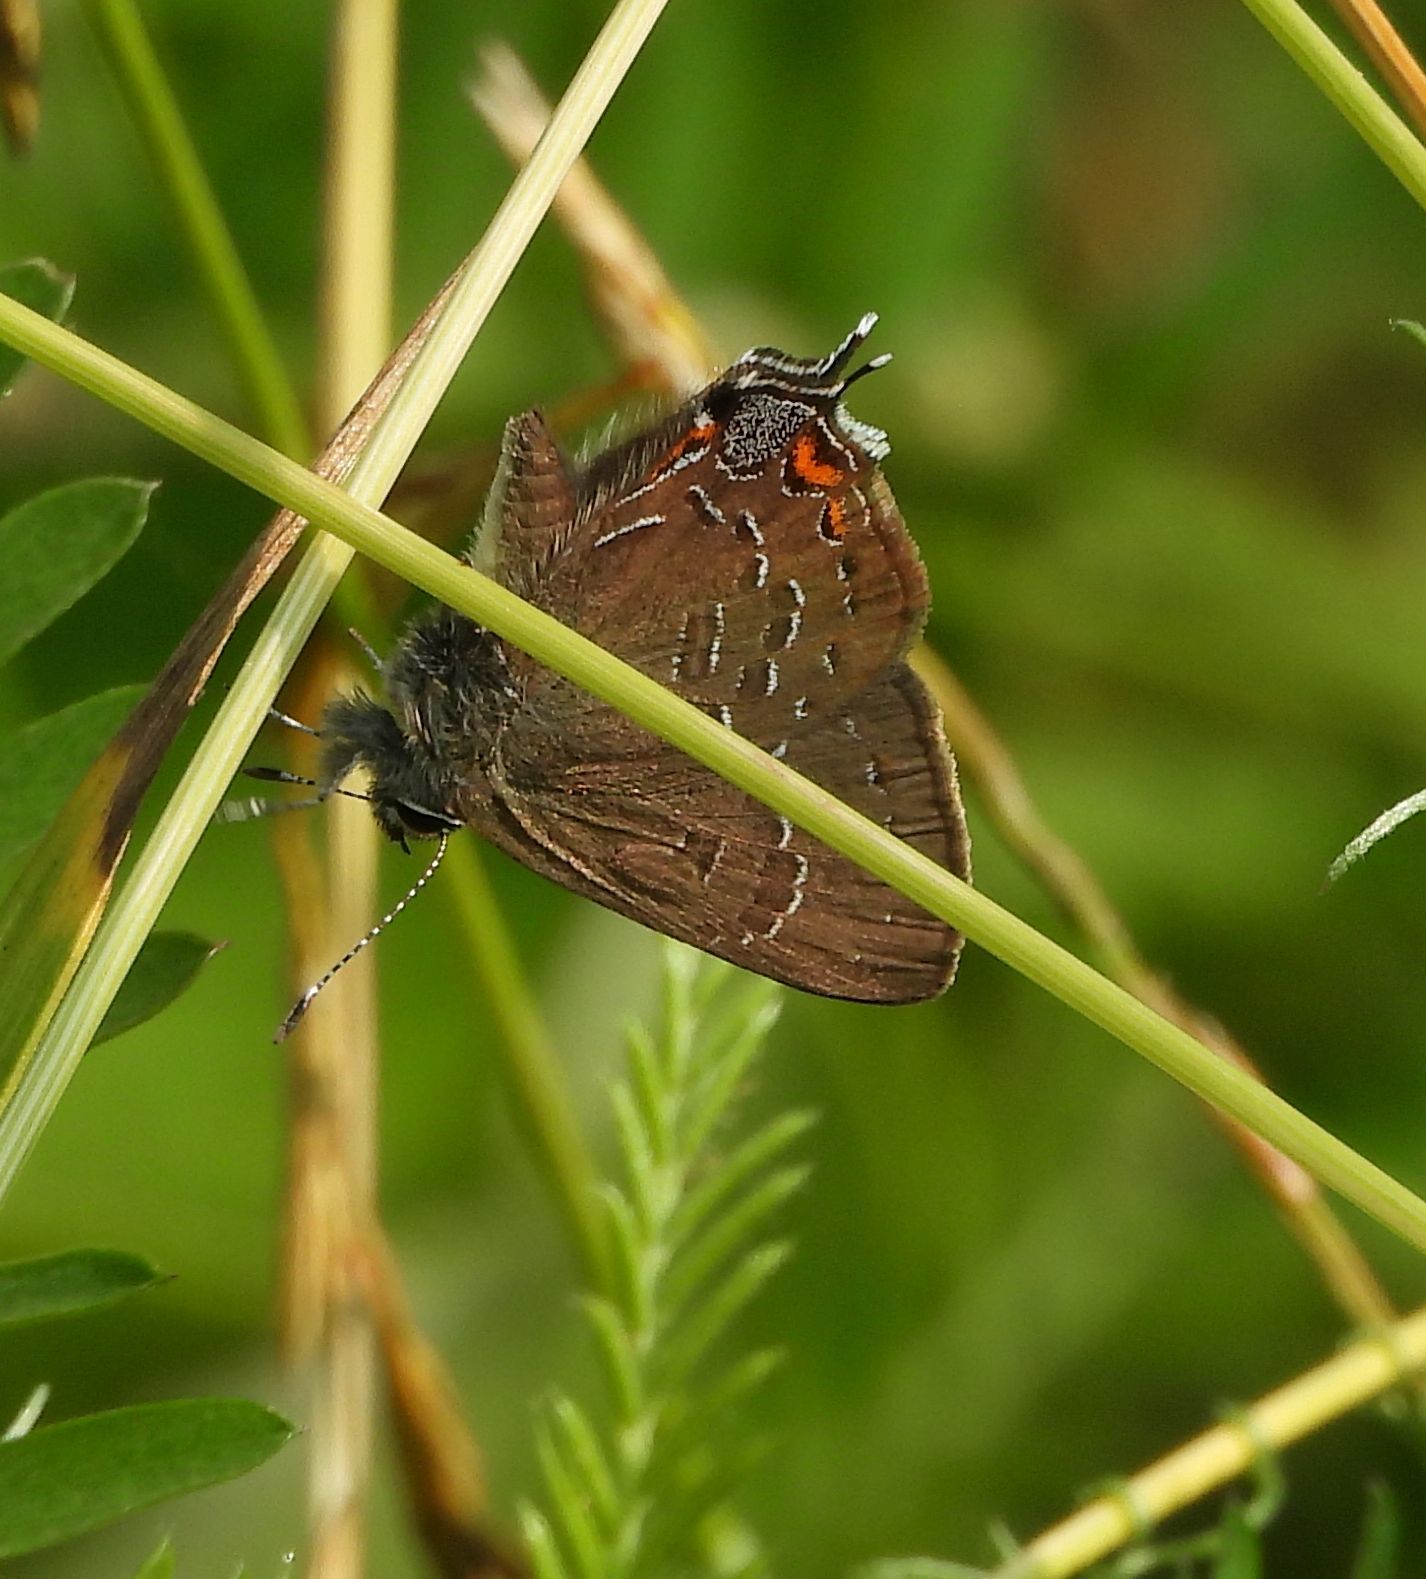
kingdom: Animalia
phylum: Arthropoda
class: Insecta
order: Lepidoptera
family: Lycaenidae
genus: Satyrium
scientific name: Satyrium calanus
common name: Banded hairstreak
